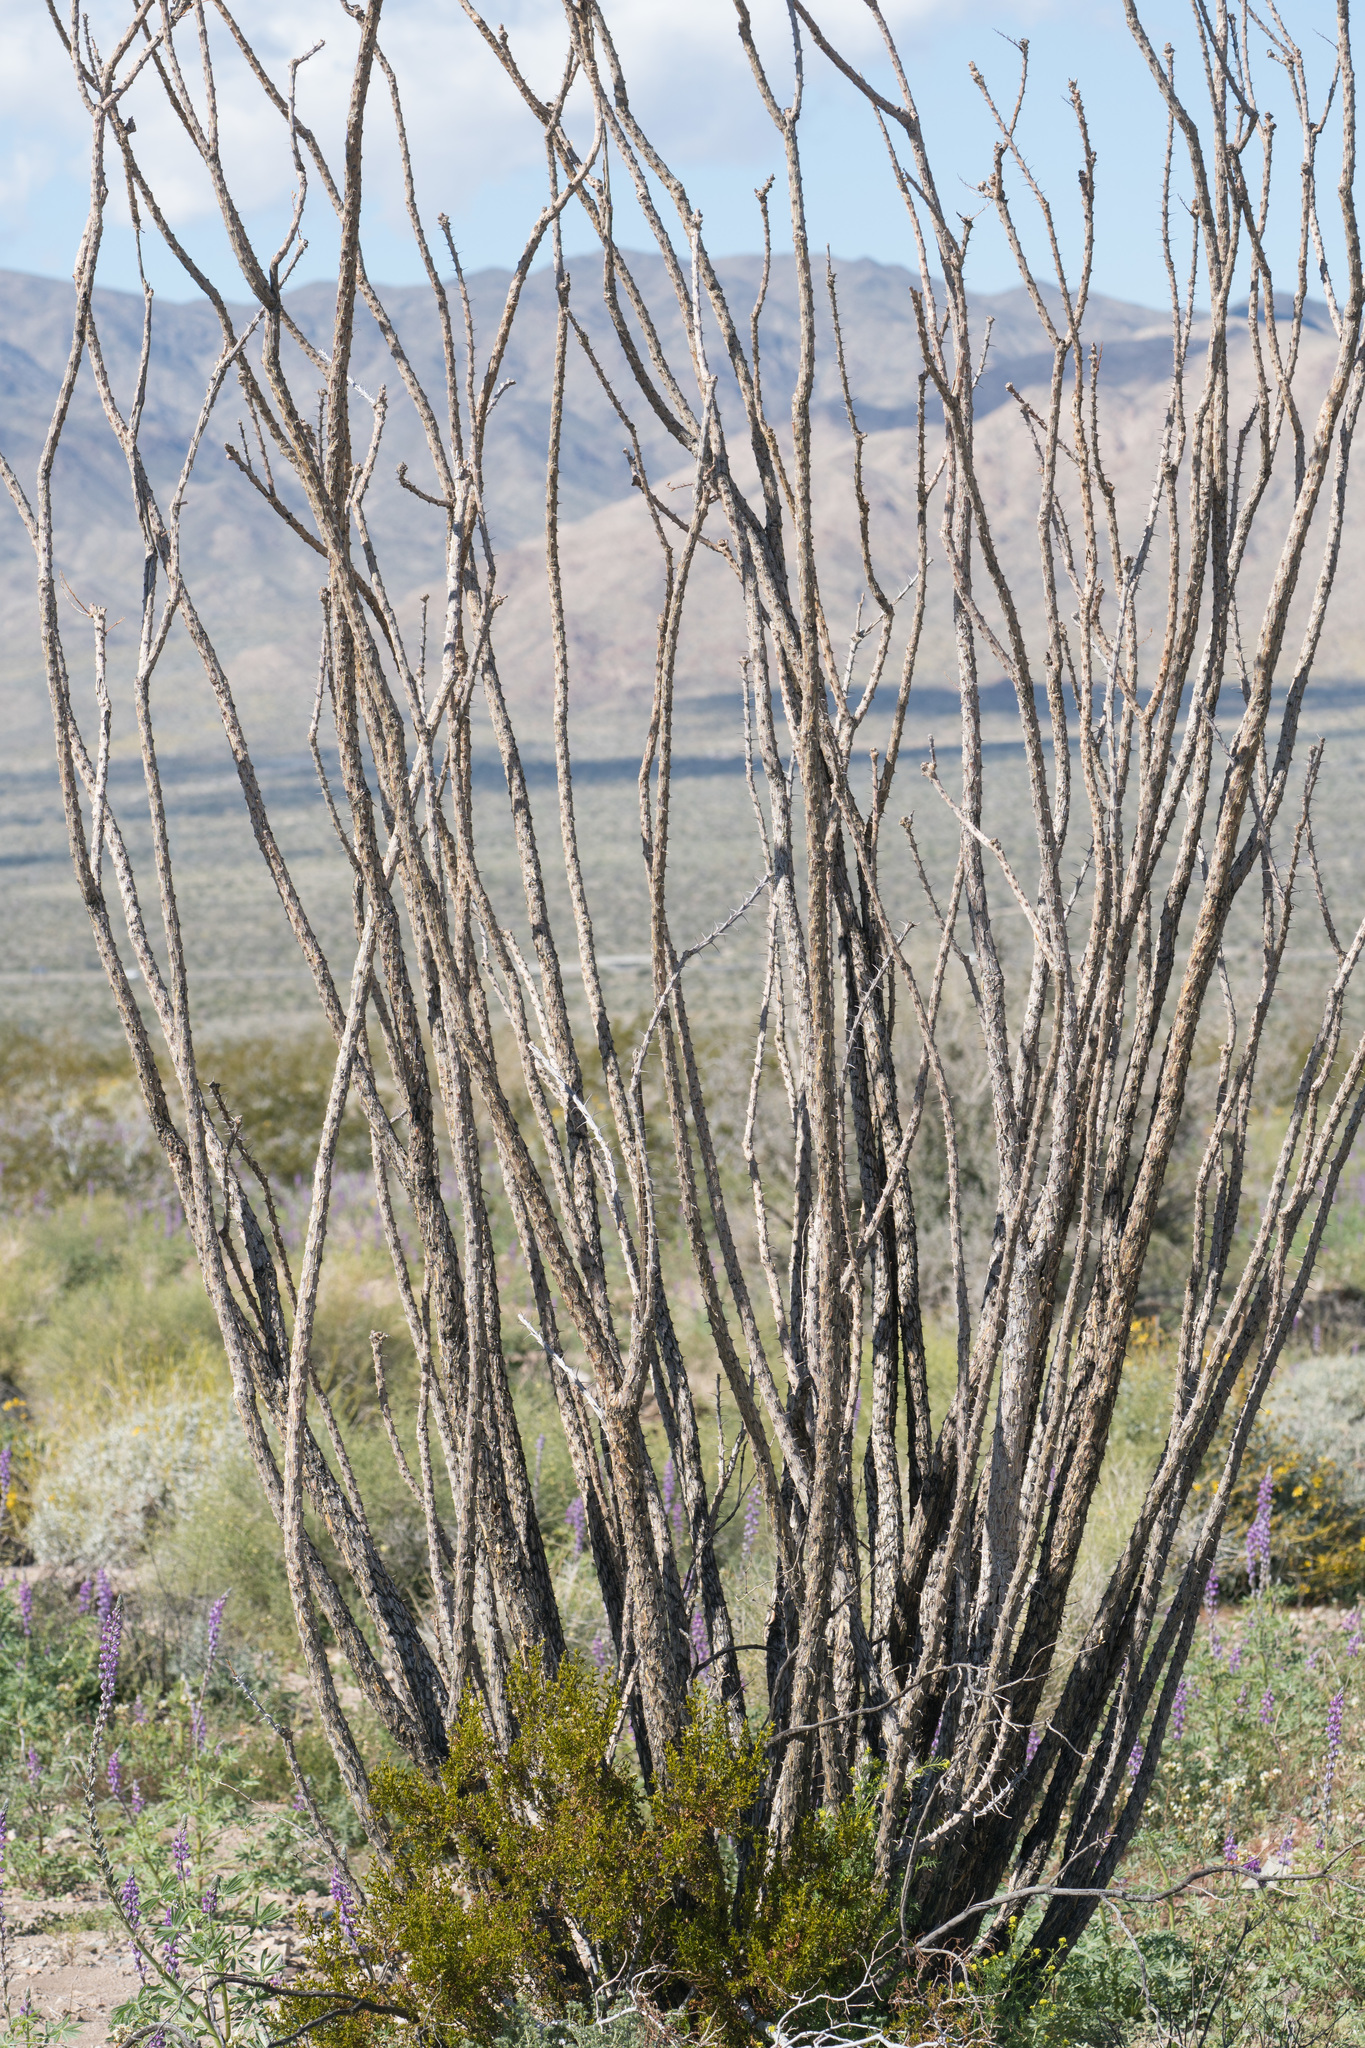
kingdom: Plantae
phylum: Tracheophyta
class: Magnoliopsida
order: Ericales
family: Fouquieriaceae
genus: Fouquieria
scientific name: Fouquieria splendens
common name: Vine-cactus
